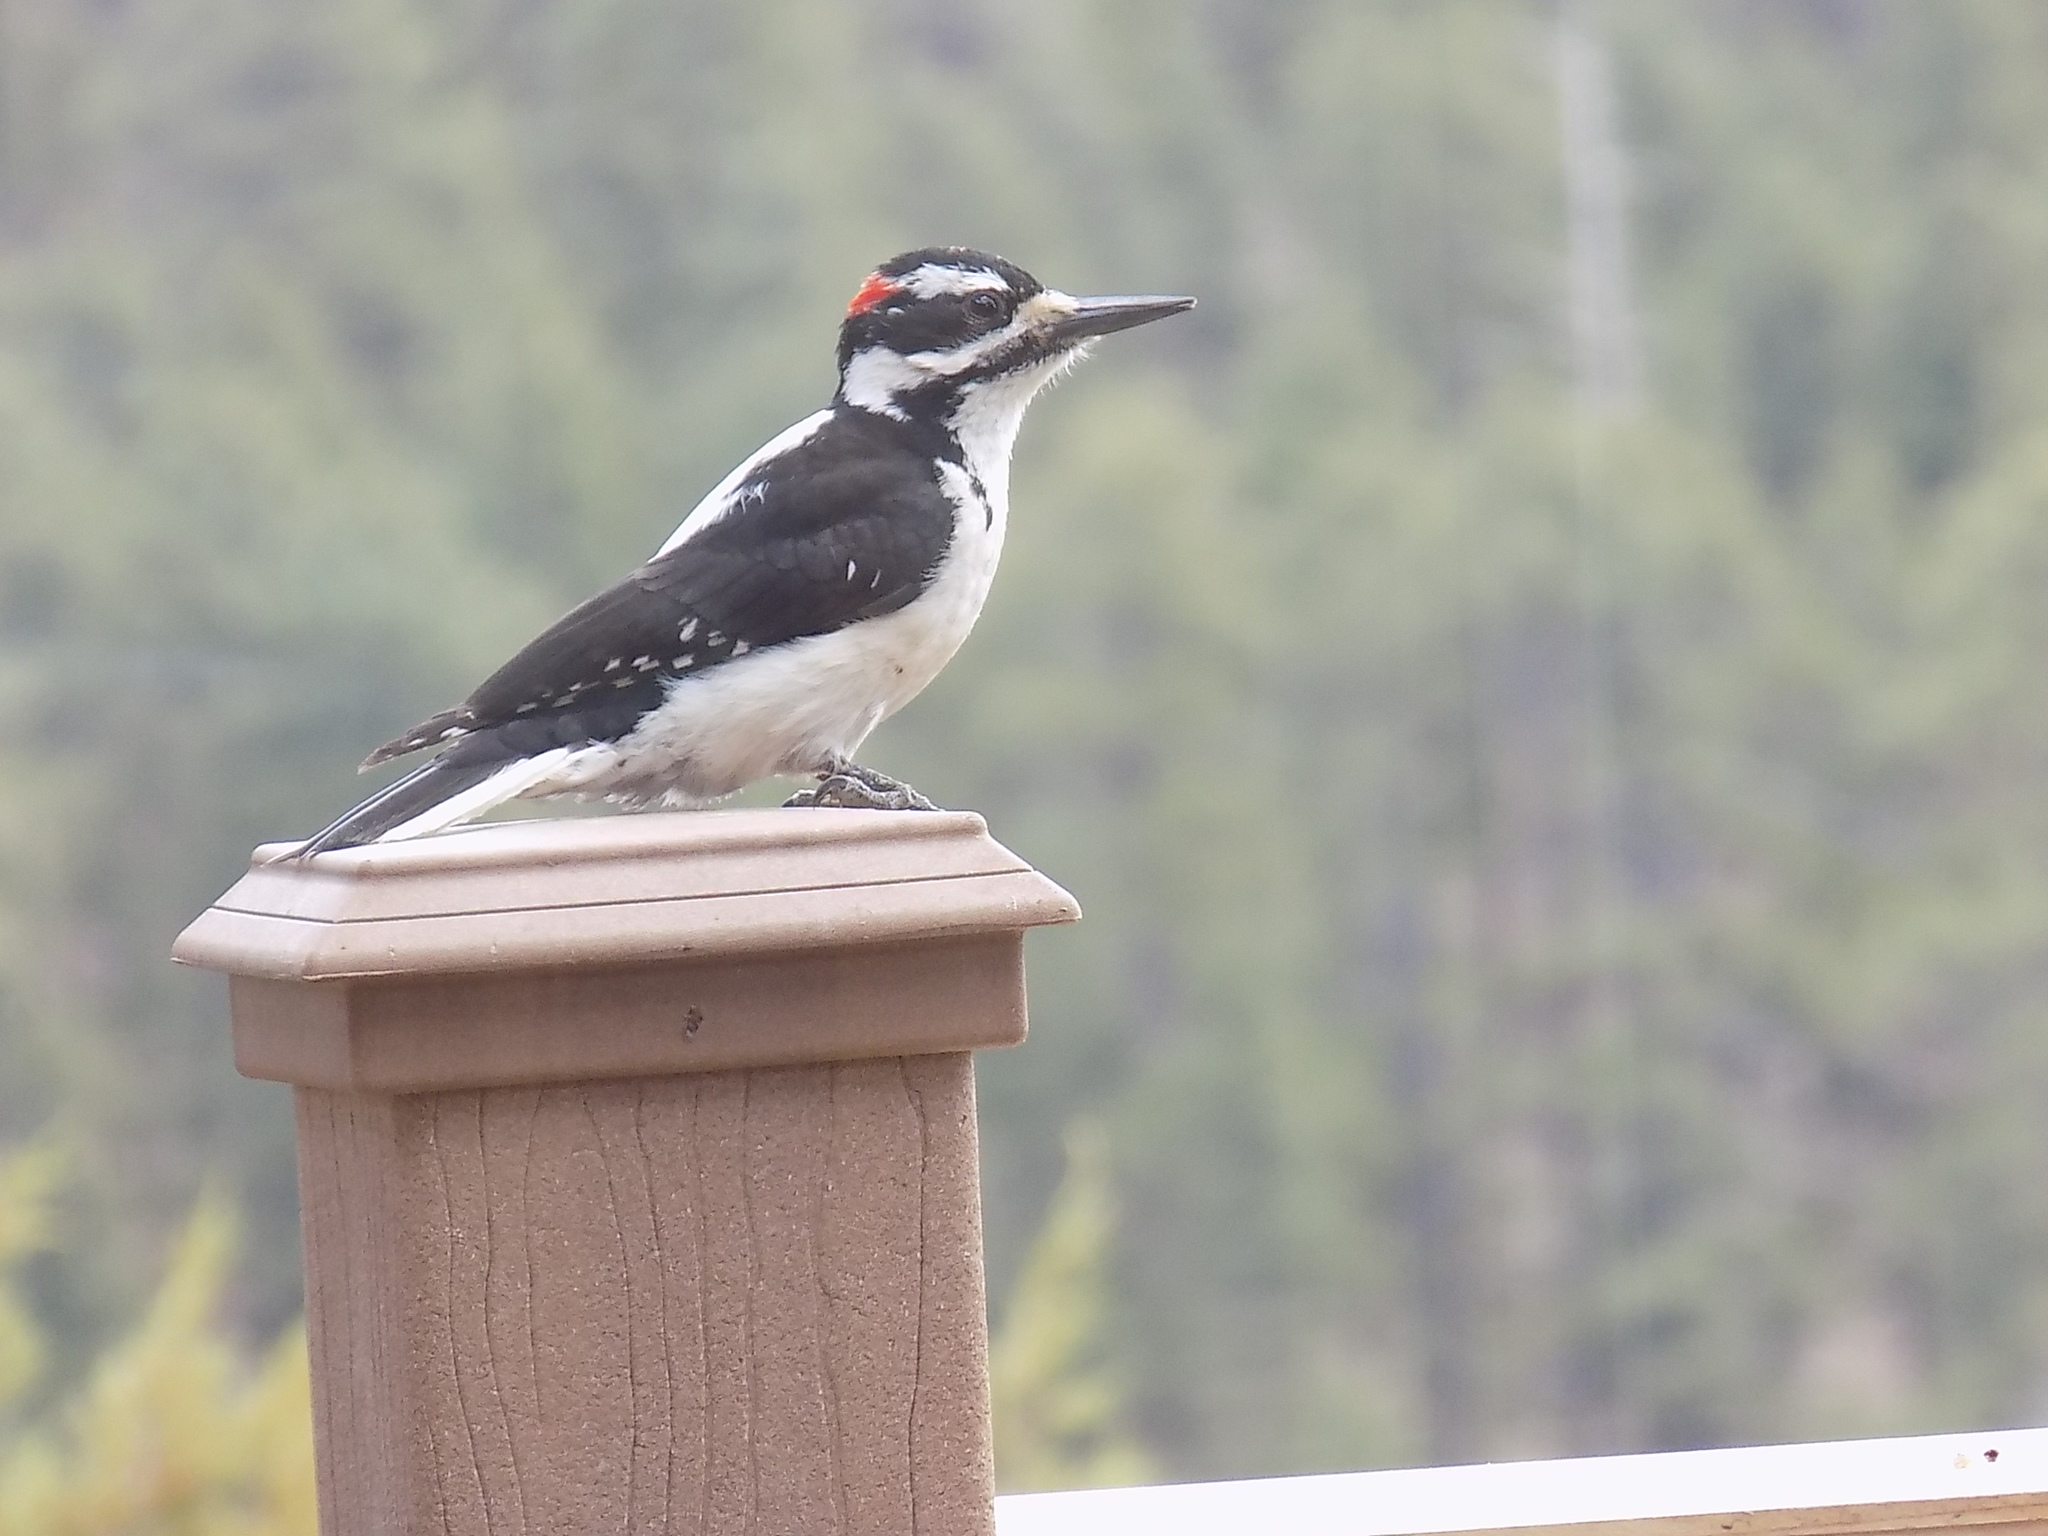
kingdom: Animalia
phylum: Chordata
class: Aves
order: Piciformes
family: Picidae
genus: Leuconotopicus
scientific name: Leuconotopicus villosus
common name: Hairy woodpecker
